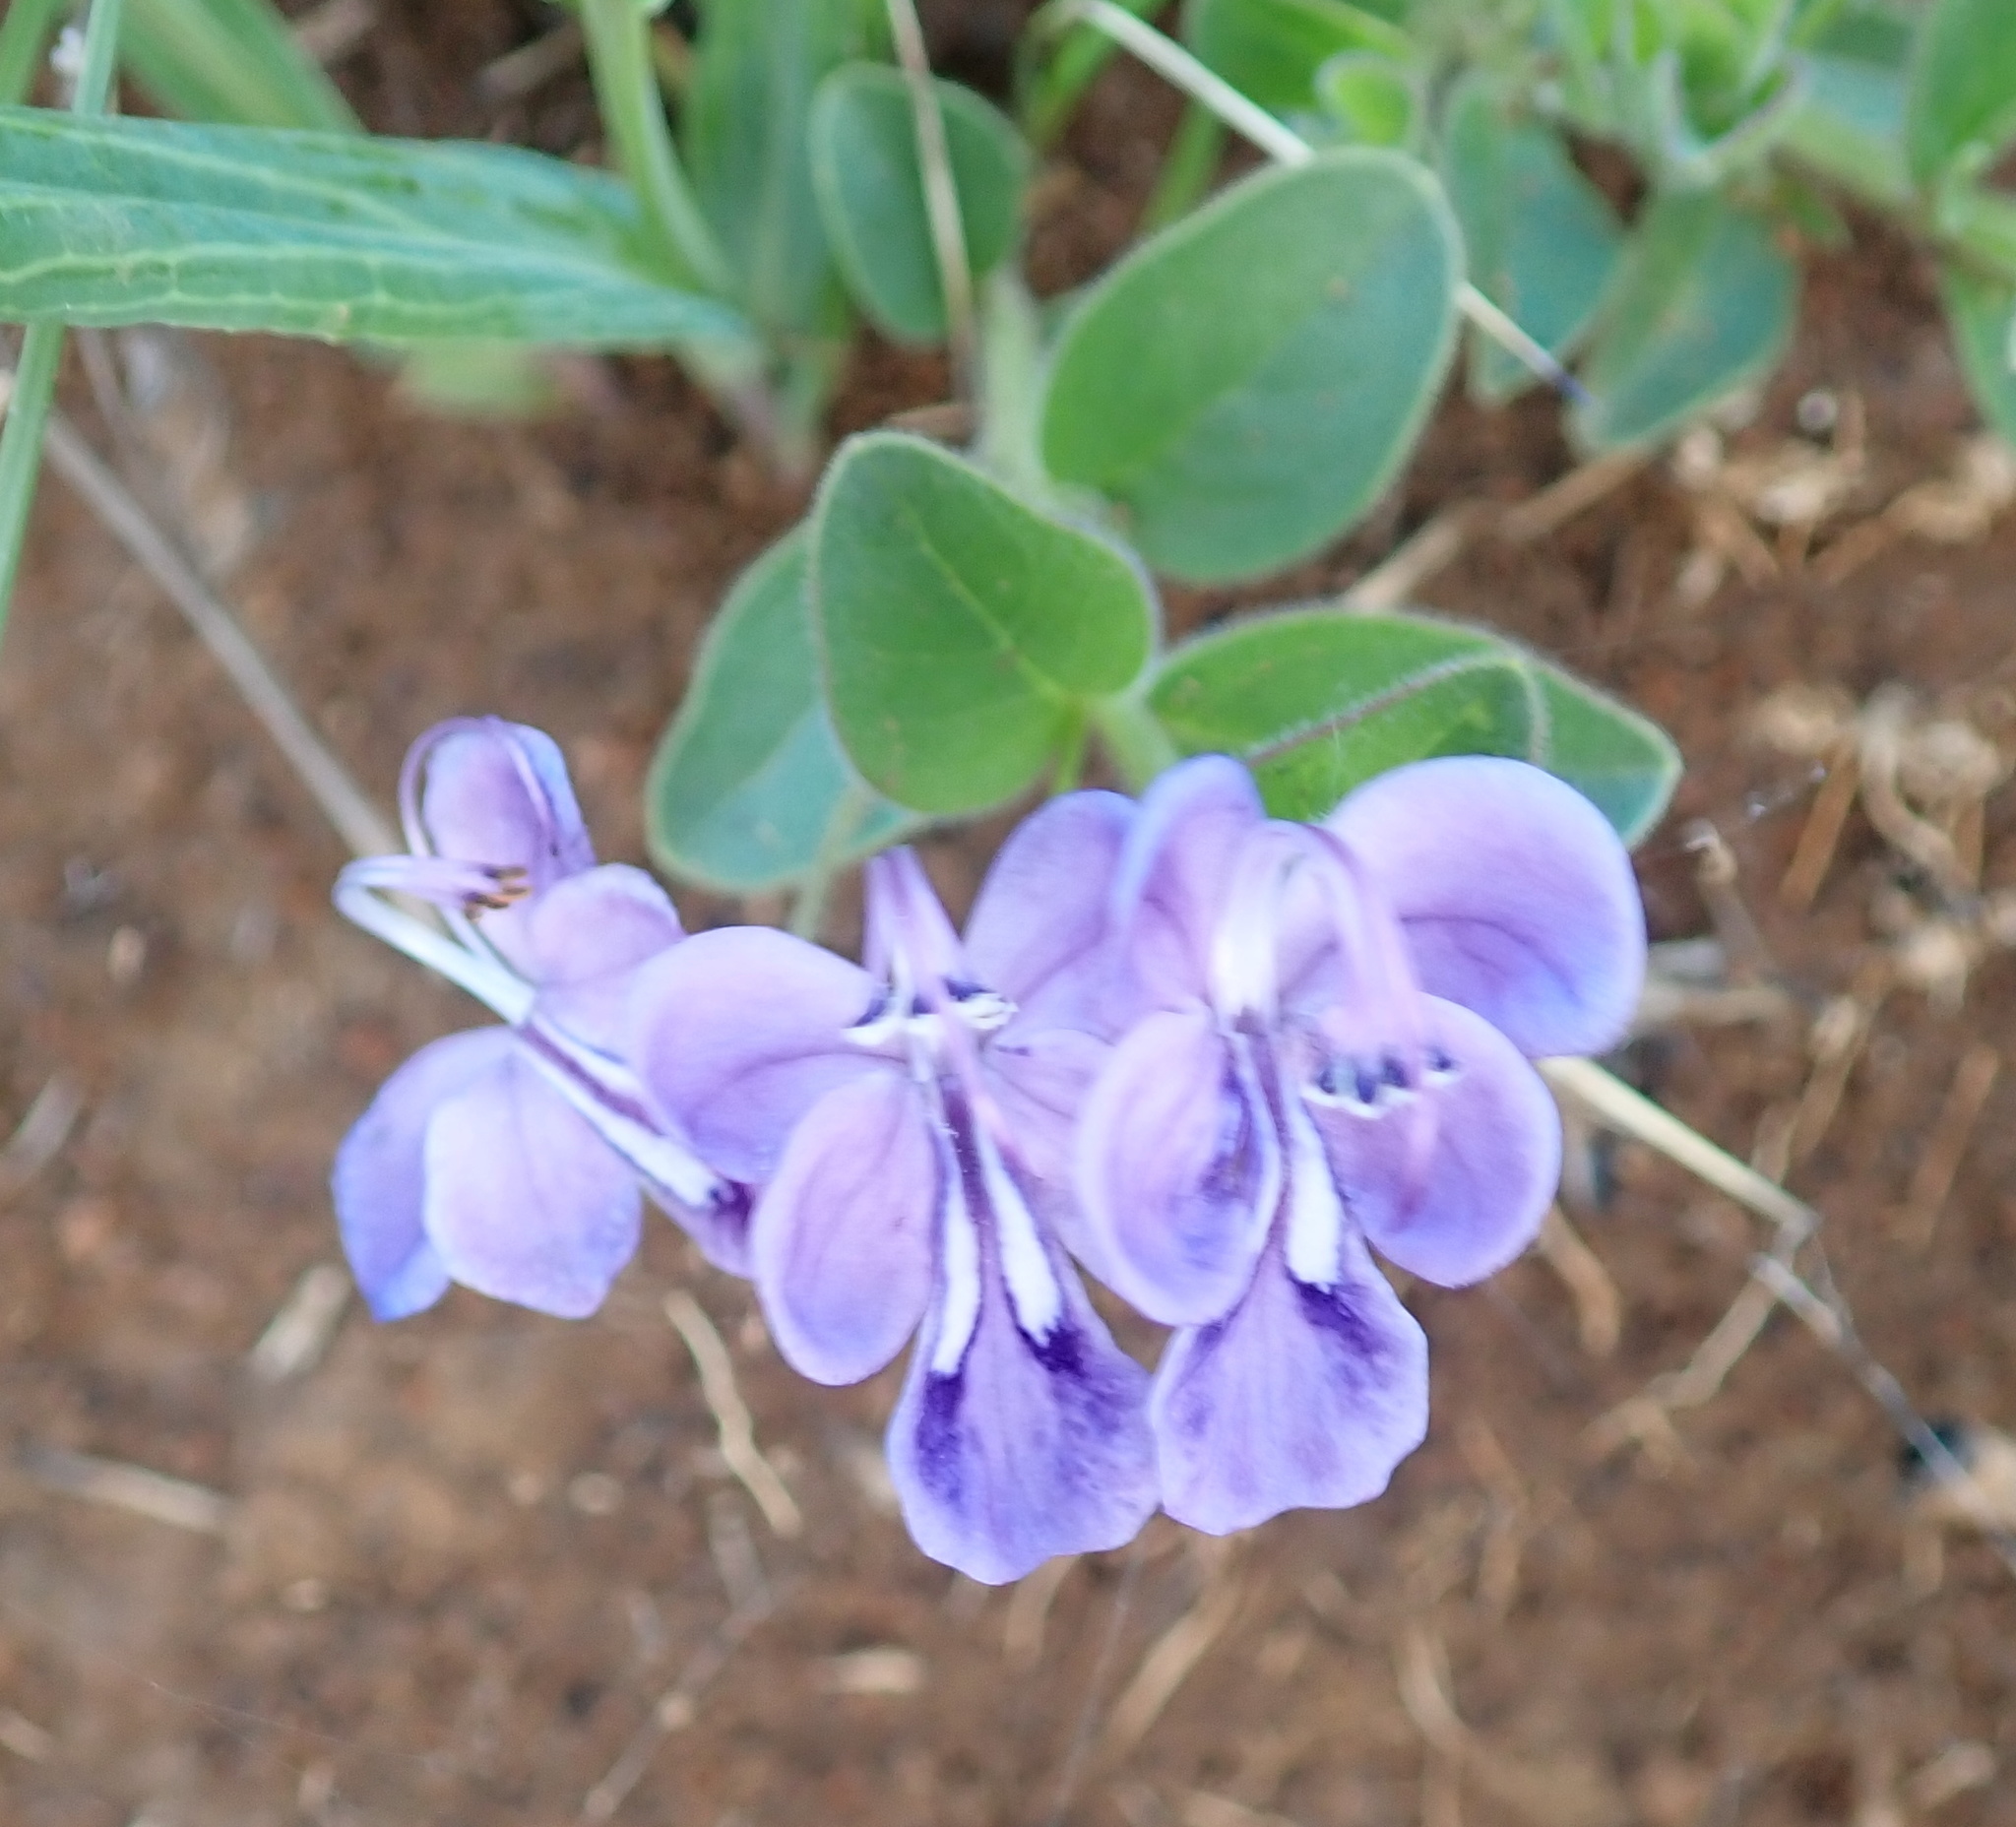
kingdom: Plantae
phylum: Tracheophyta
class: Magnoliopsida
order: Lamiales
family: Lamiaceae
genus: Rotheca
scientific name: Rotheca hirsuta
